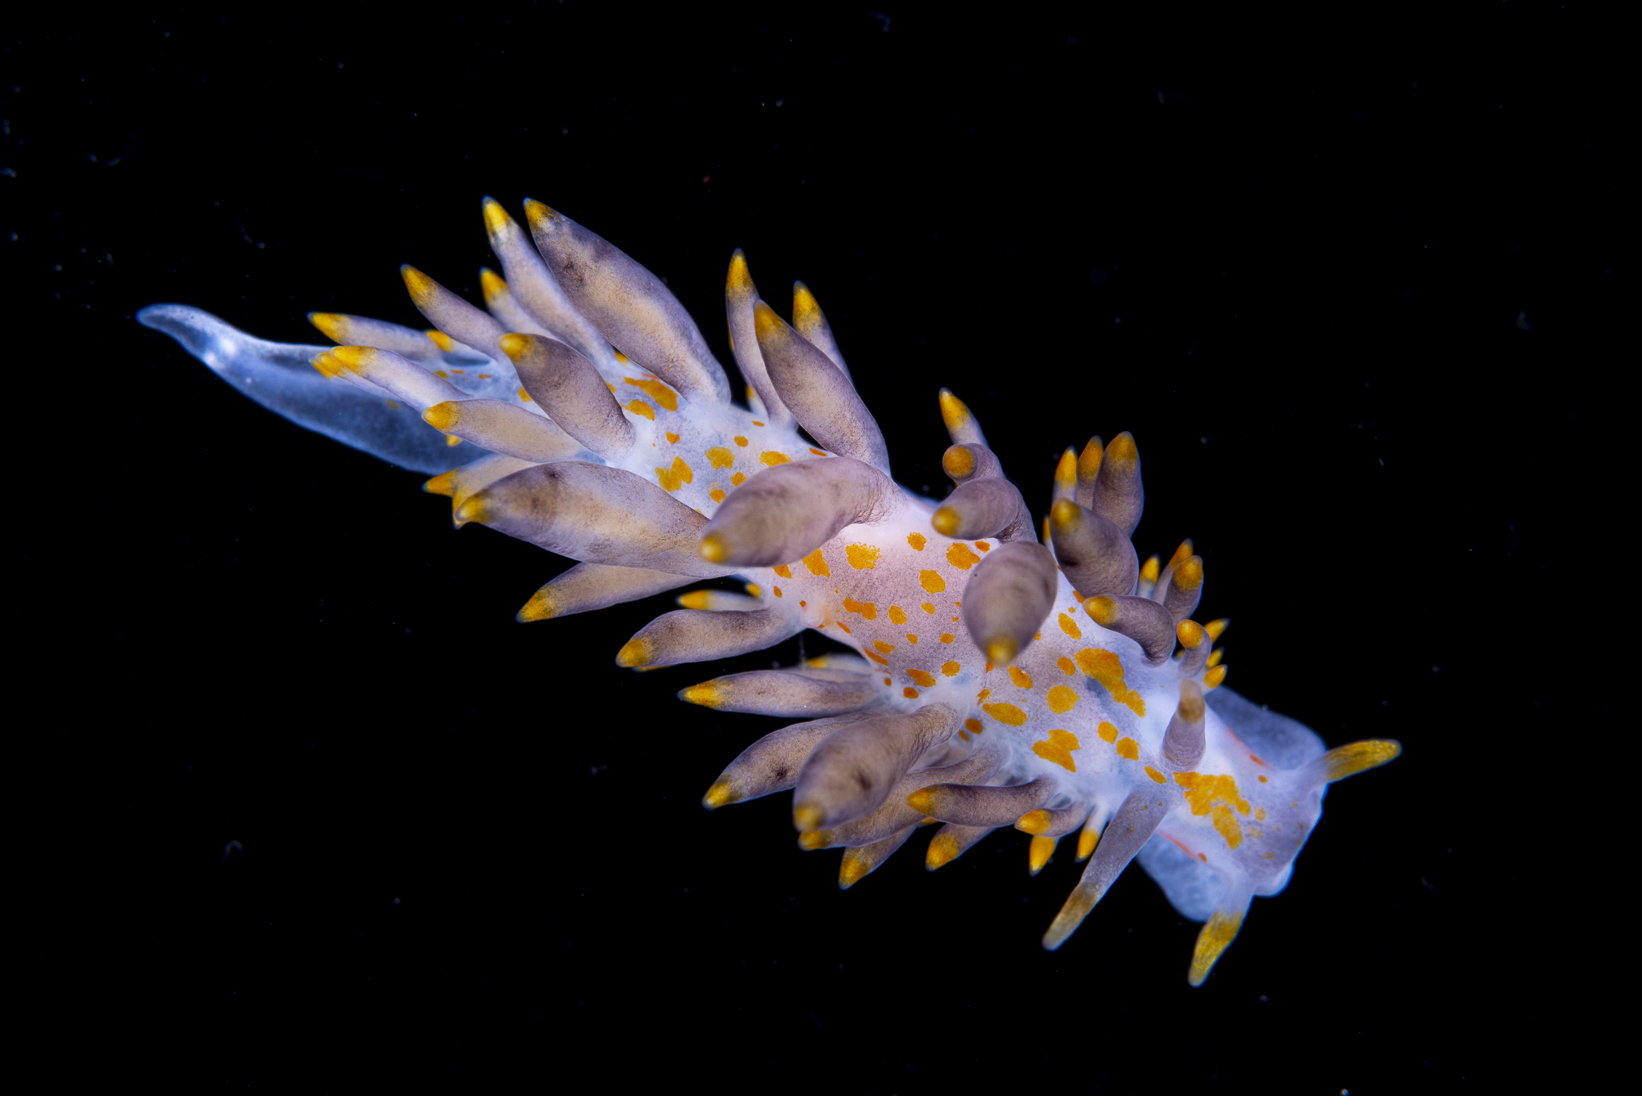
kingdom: Animalia
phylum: Mollusca
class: Gastropoda
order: Nudibranchia
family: Eubranchidae
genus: Amphorina
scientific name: Amphorina andra
